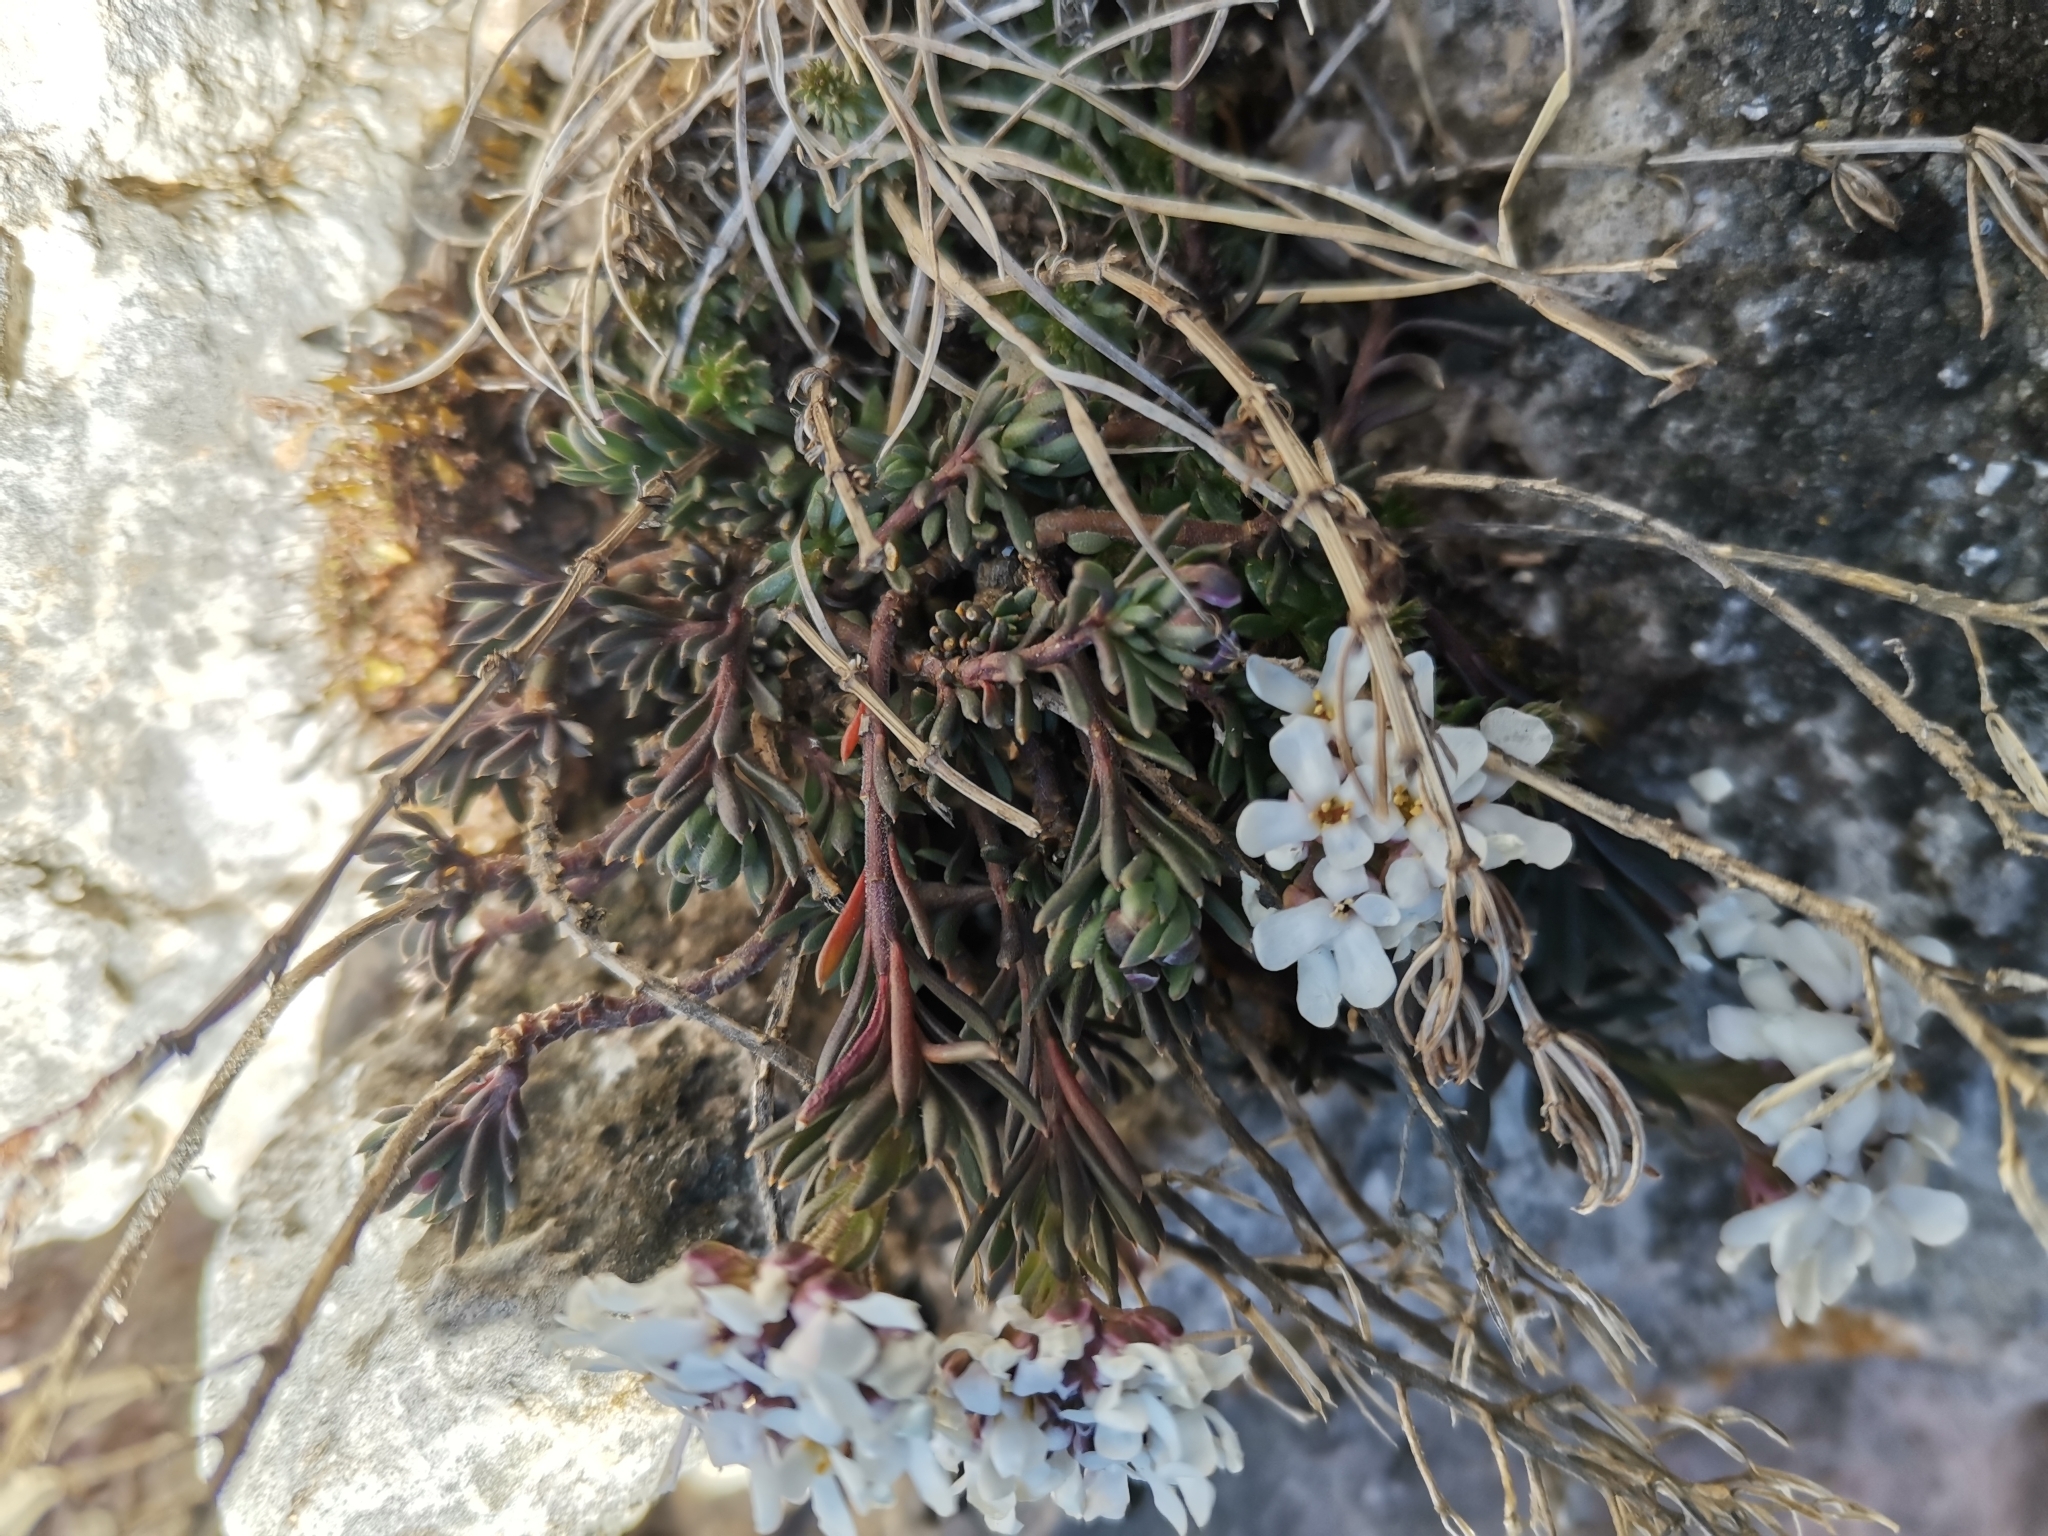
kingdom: Plantae
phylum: Tracheophyta
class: Magnoliopsida
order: Brassicales
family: Brassicaceae
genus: Iberis
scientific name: Iberis saxatilis
